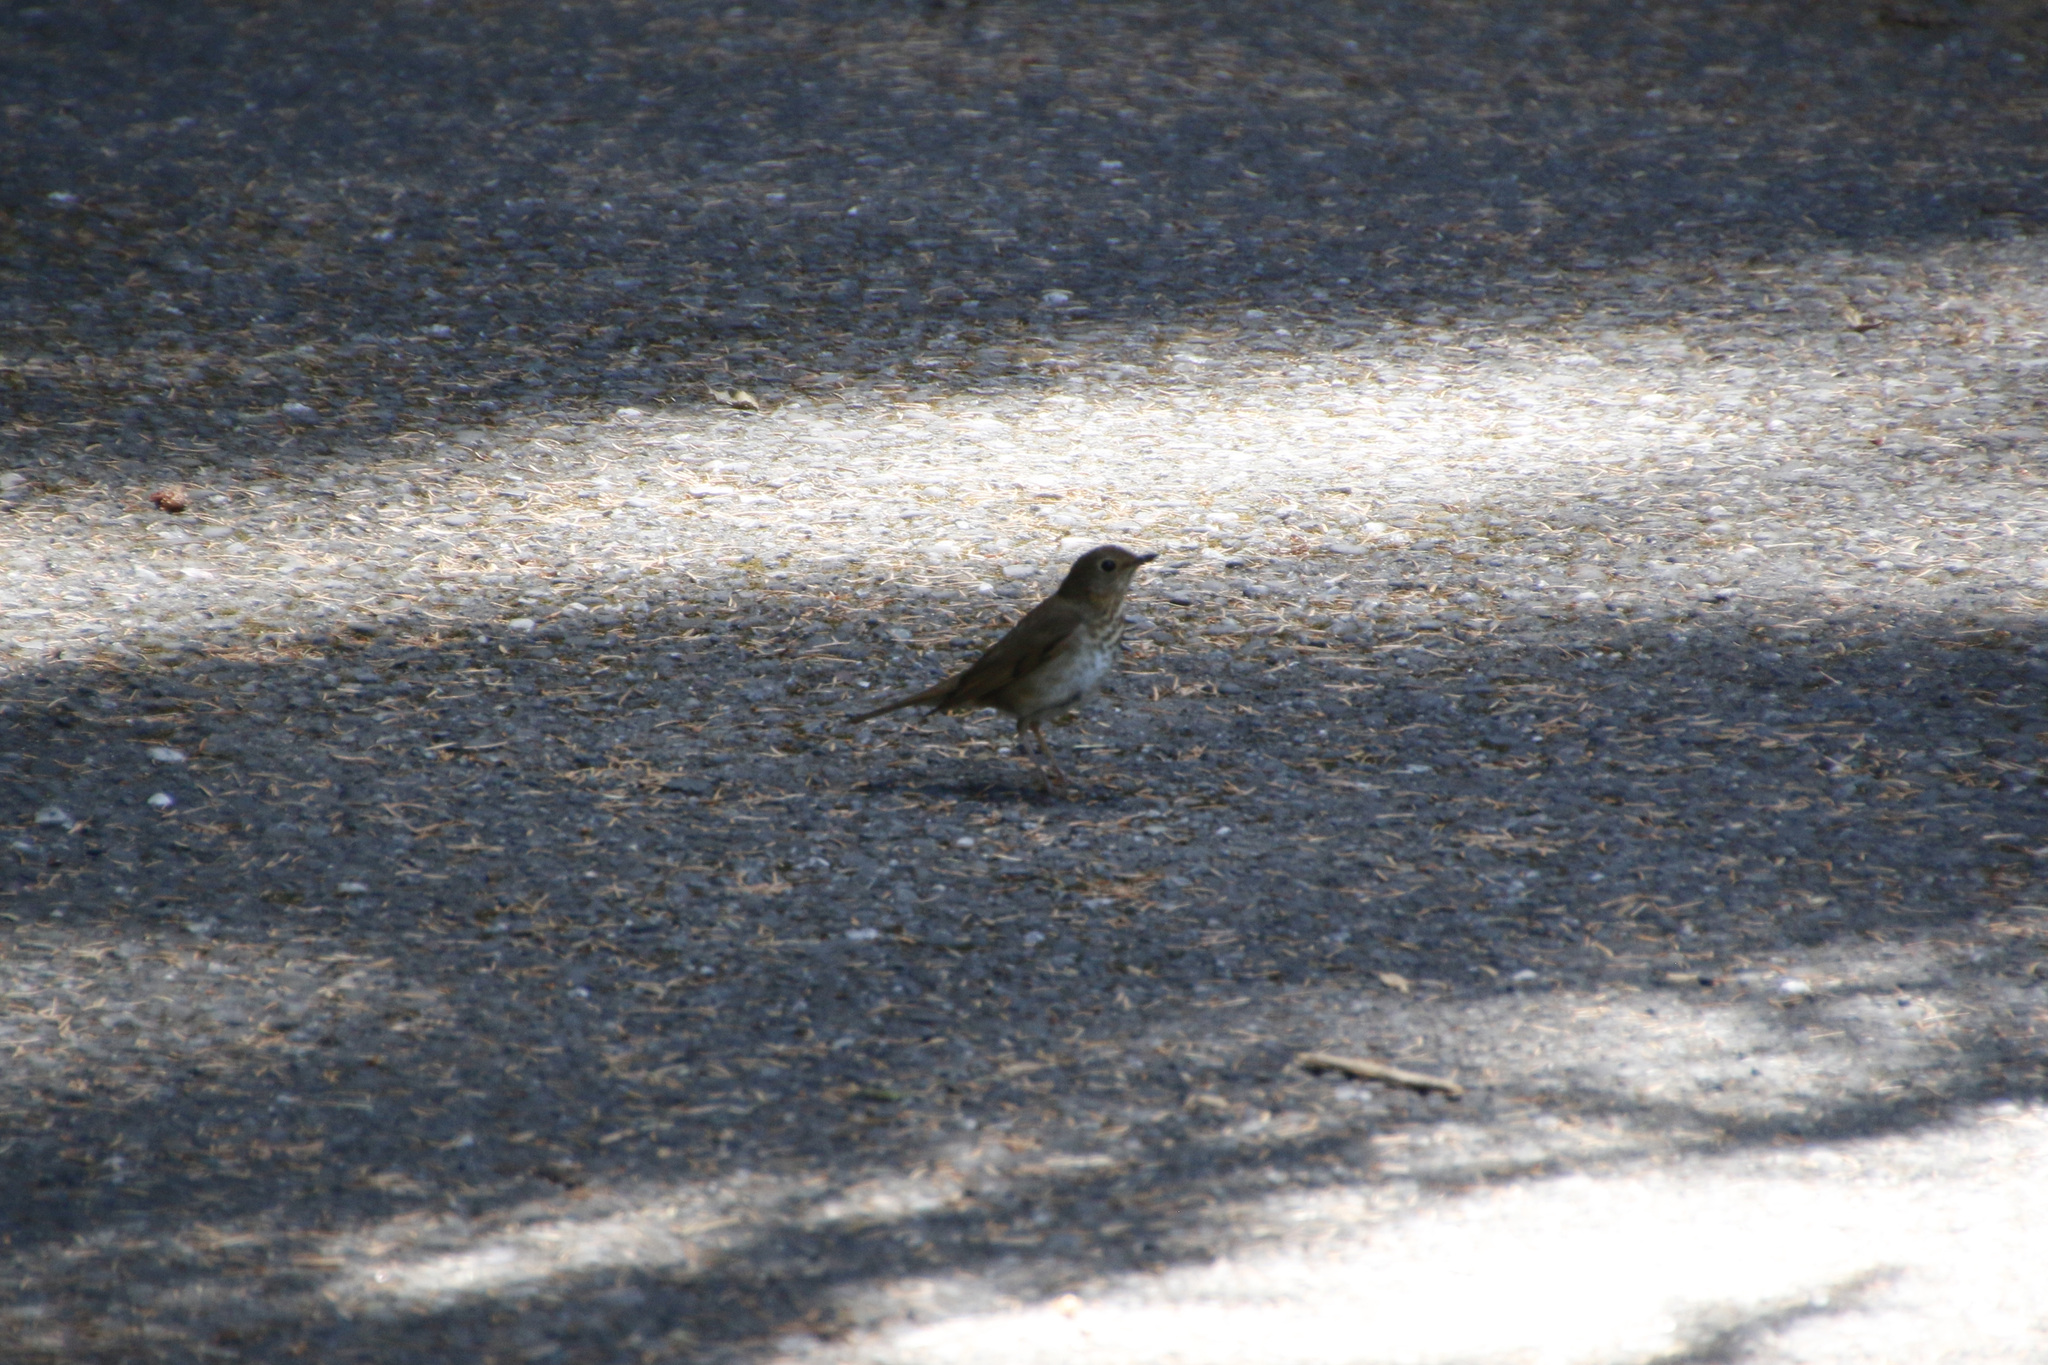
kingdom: Animalia
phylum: Chordata
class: Aves
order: Passeriformes
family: Turdidae
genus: Catharus
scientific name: Catharus ustulatus
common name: Swainson's thrush
